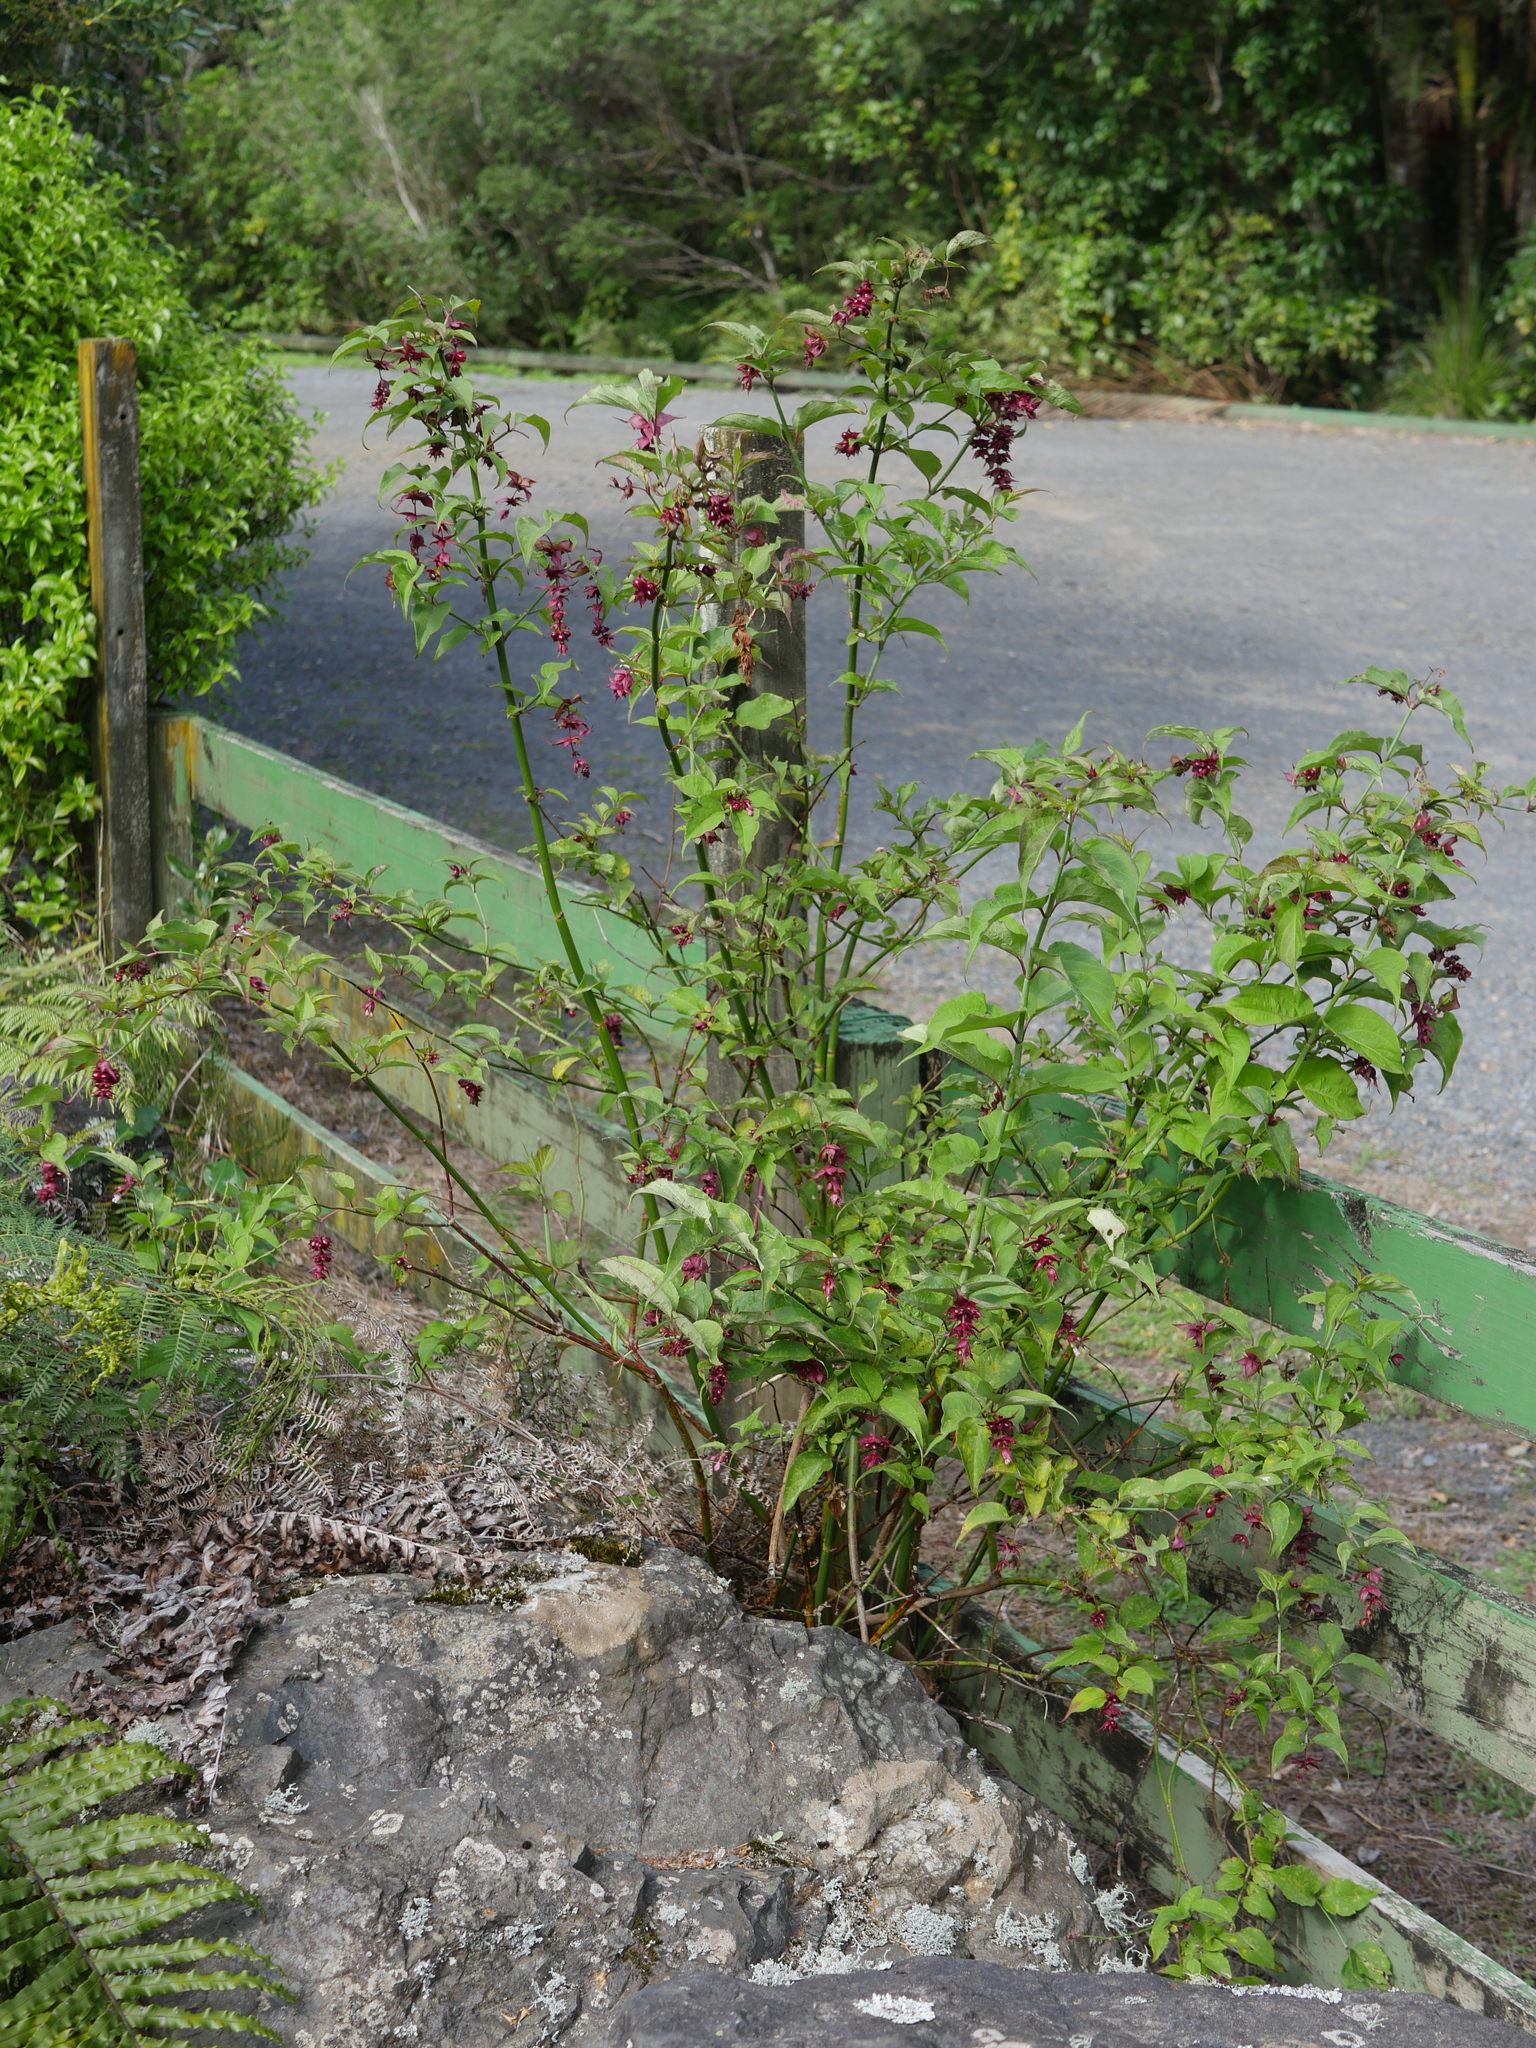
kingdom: Plantae
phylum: Tracheophyta
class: Magnoliopsida
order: Dipsacales
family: Caprifoliaceae
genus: Leycesteria
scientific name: Leycesteria formosa
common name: Himalayan honeysuckle
